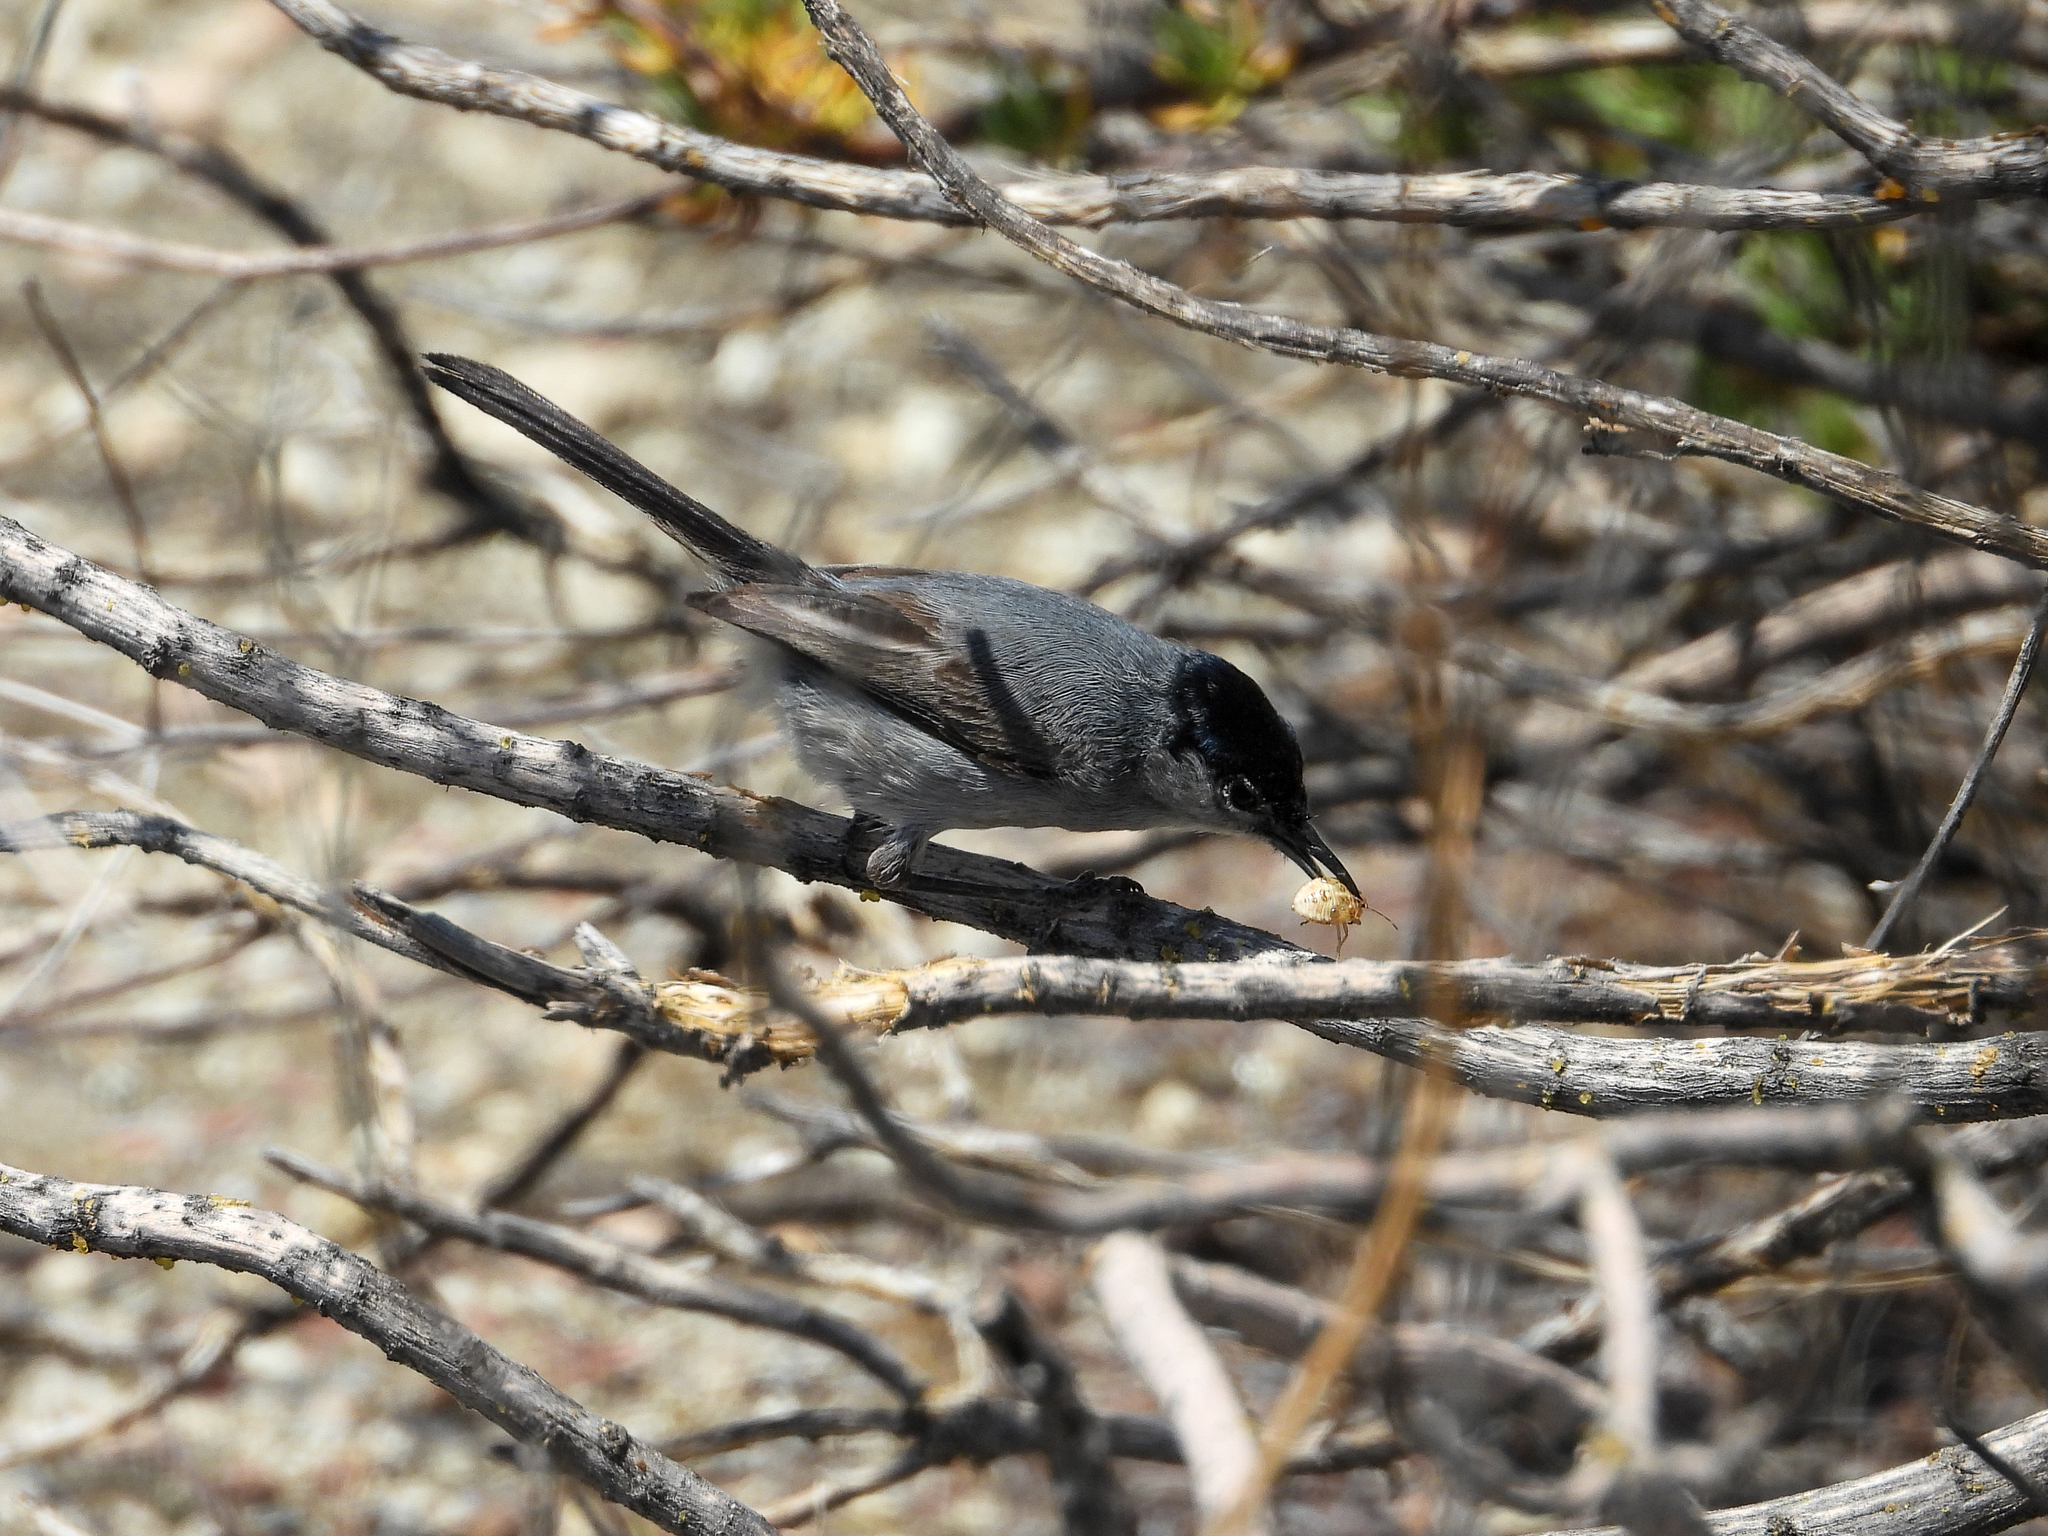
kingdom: Animalia
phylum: Chordata
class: Aves
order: Passeriformes
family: Polioptilidae
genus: Polioptila
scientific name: Polioptila californica
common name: California gnatcatcher
